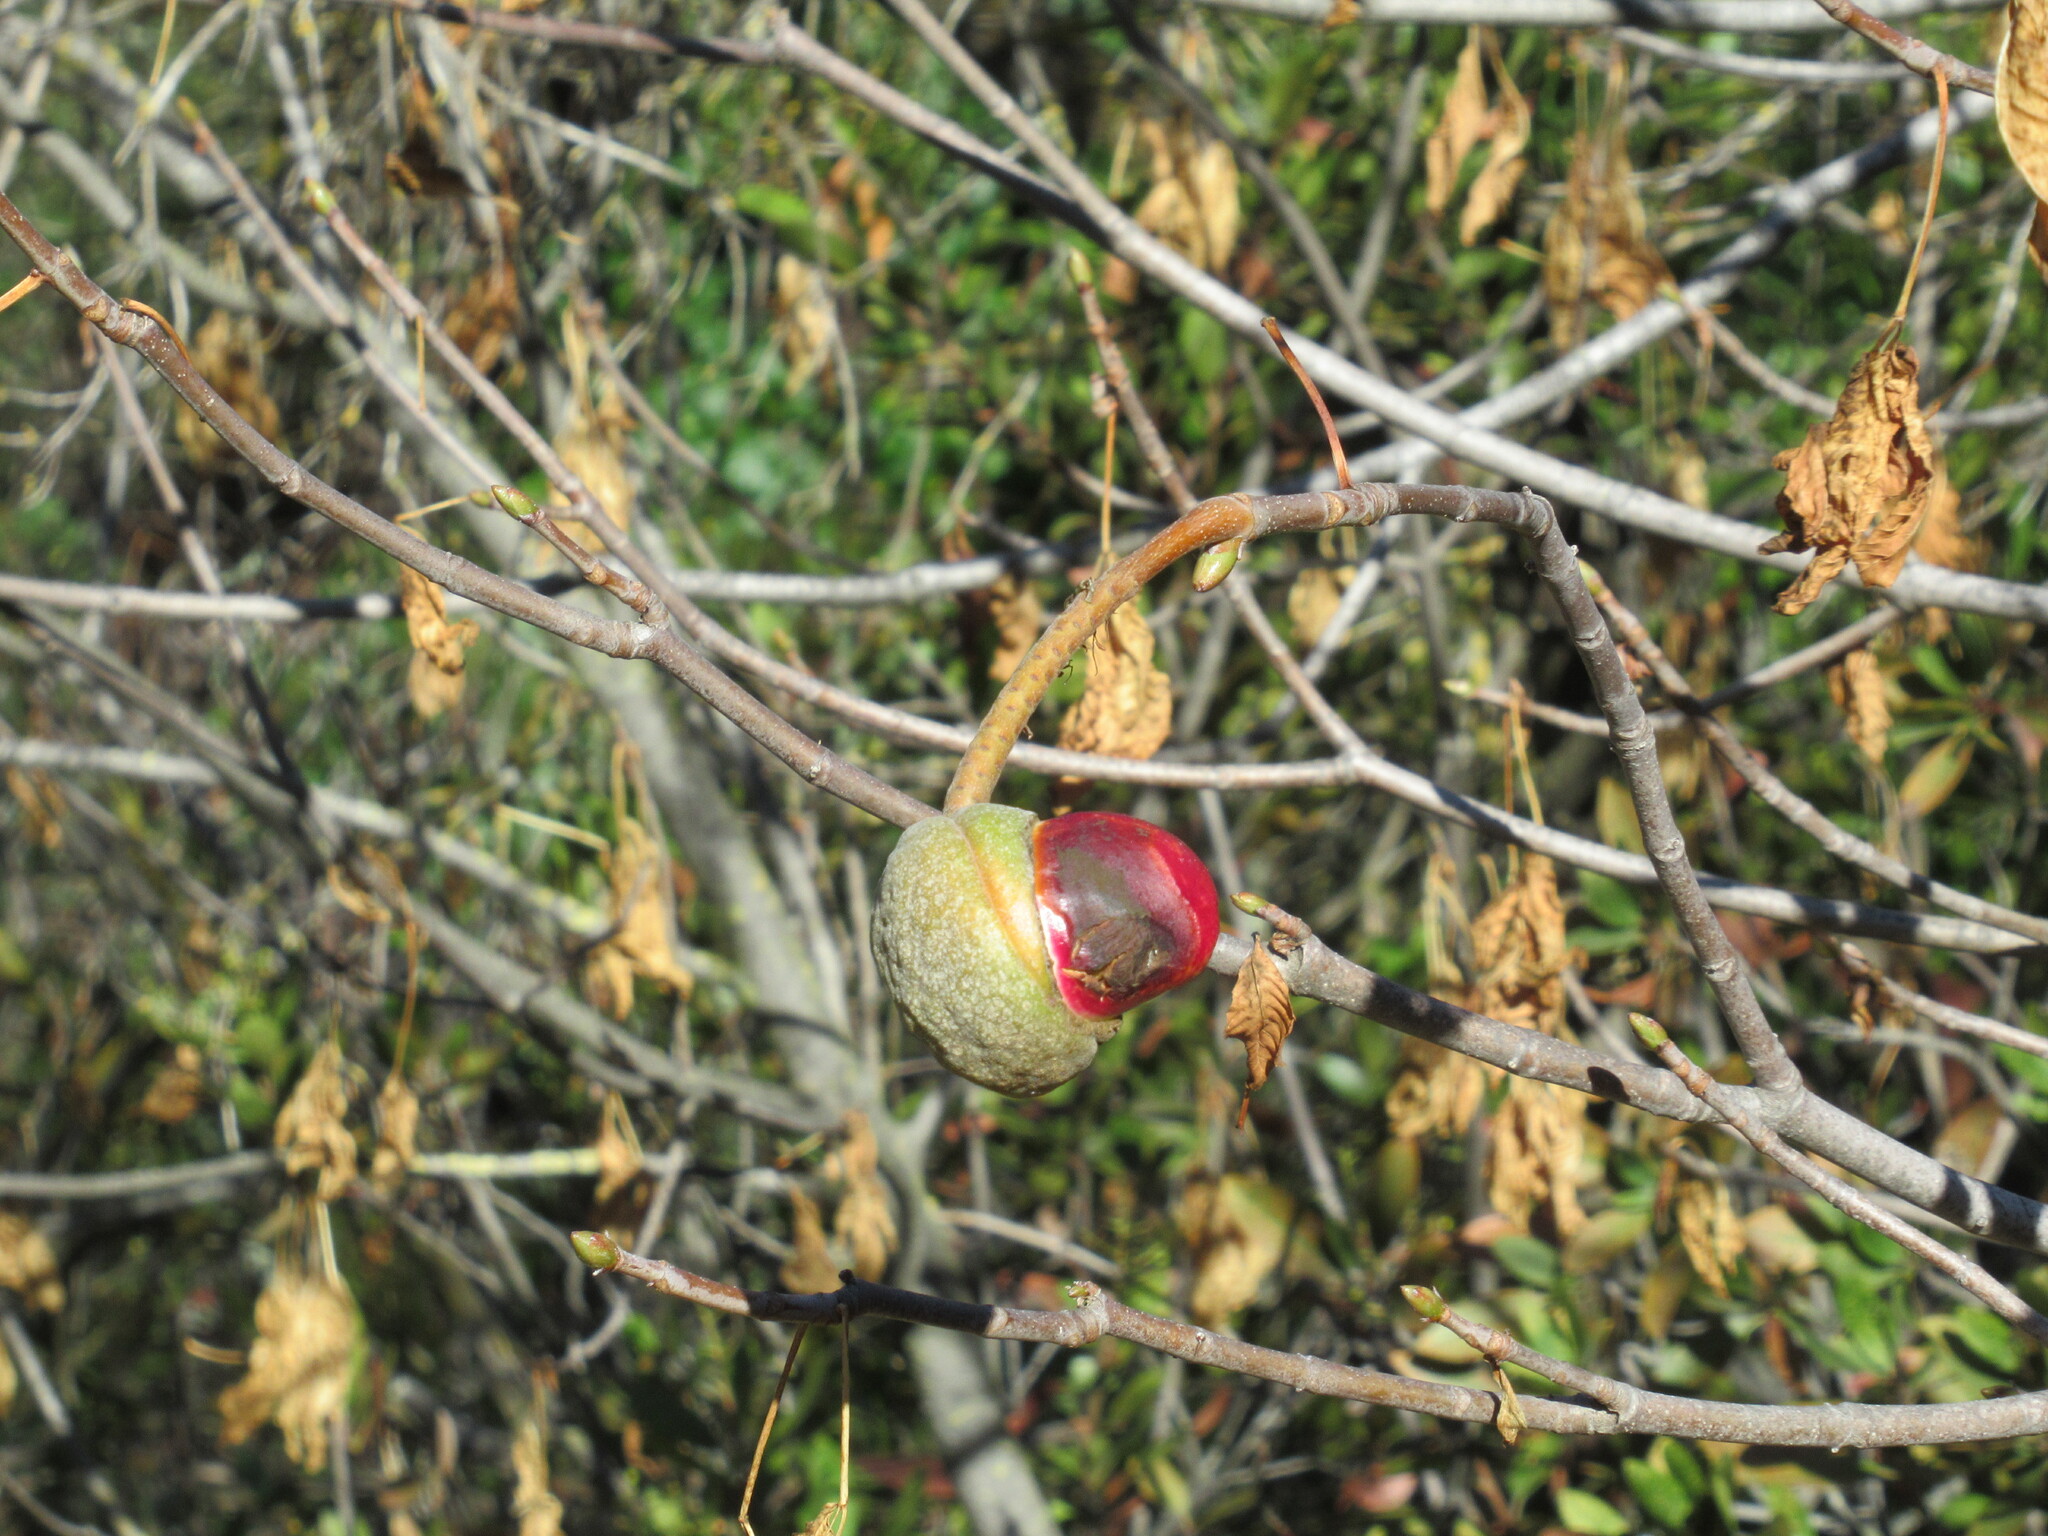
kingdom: Plantae
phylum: Tracheophyta
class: Magnoliopsida
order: Sapindales
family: Sapindaceae
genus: Aesculus
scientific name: Aesculus californica
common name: California buckeye
